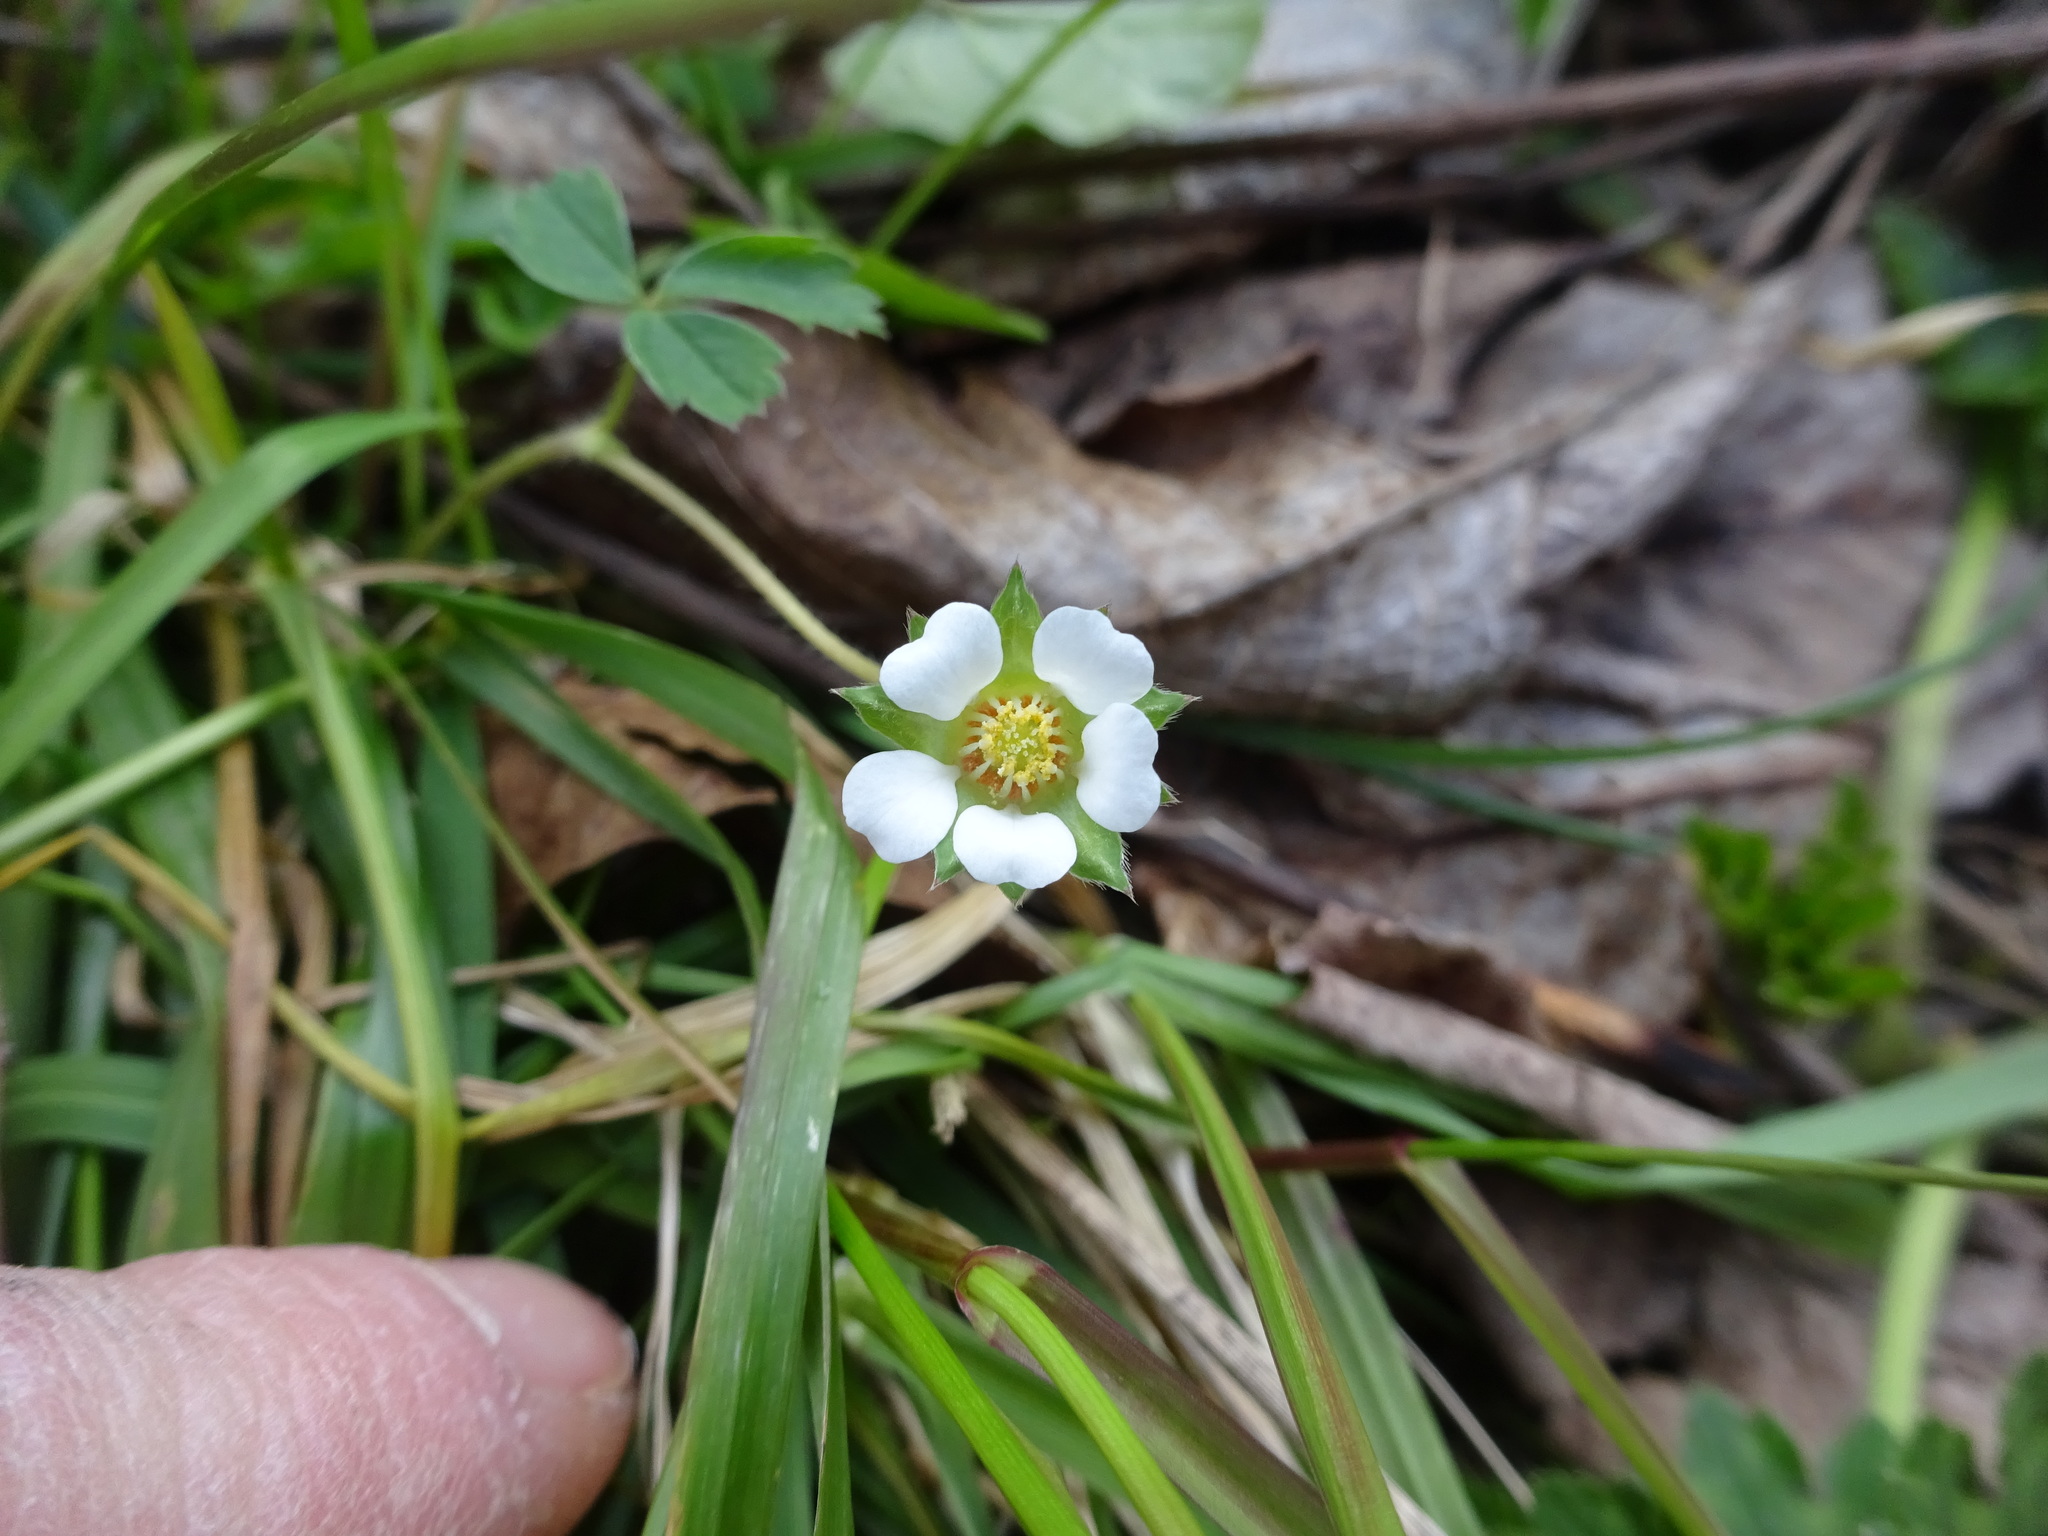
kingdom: Plantae
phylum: Tracheophyta
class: Magnoliopsida
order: Rosales
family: Rosaceae
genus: Potentilla
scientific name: Potentilla sterilis
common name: Barren strawberry
